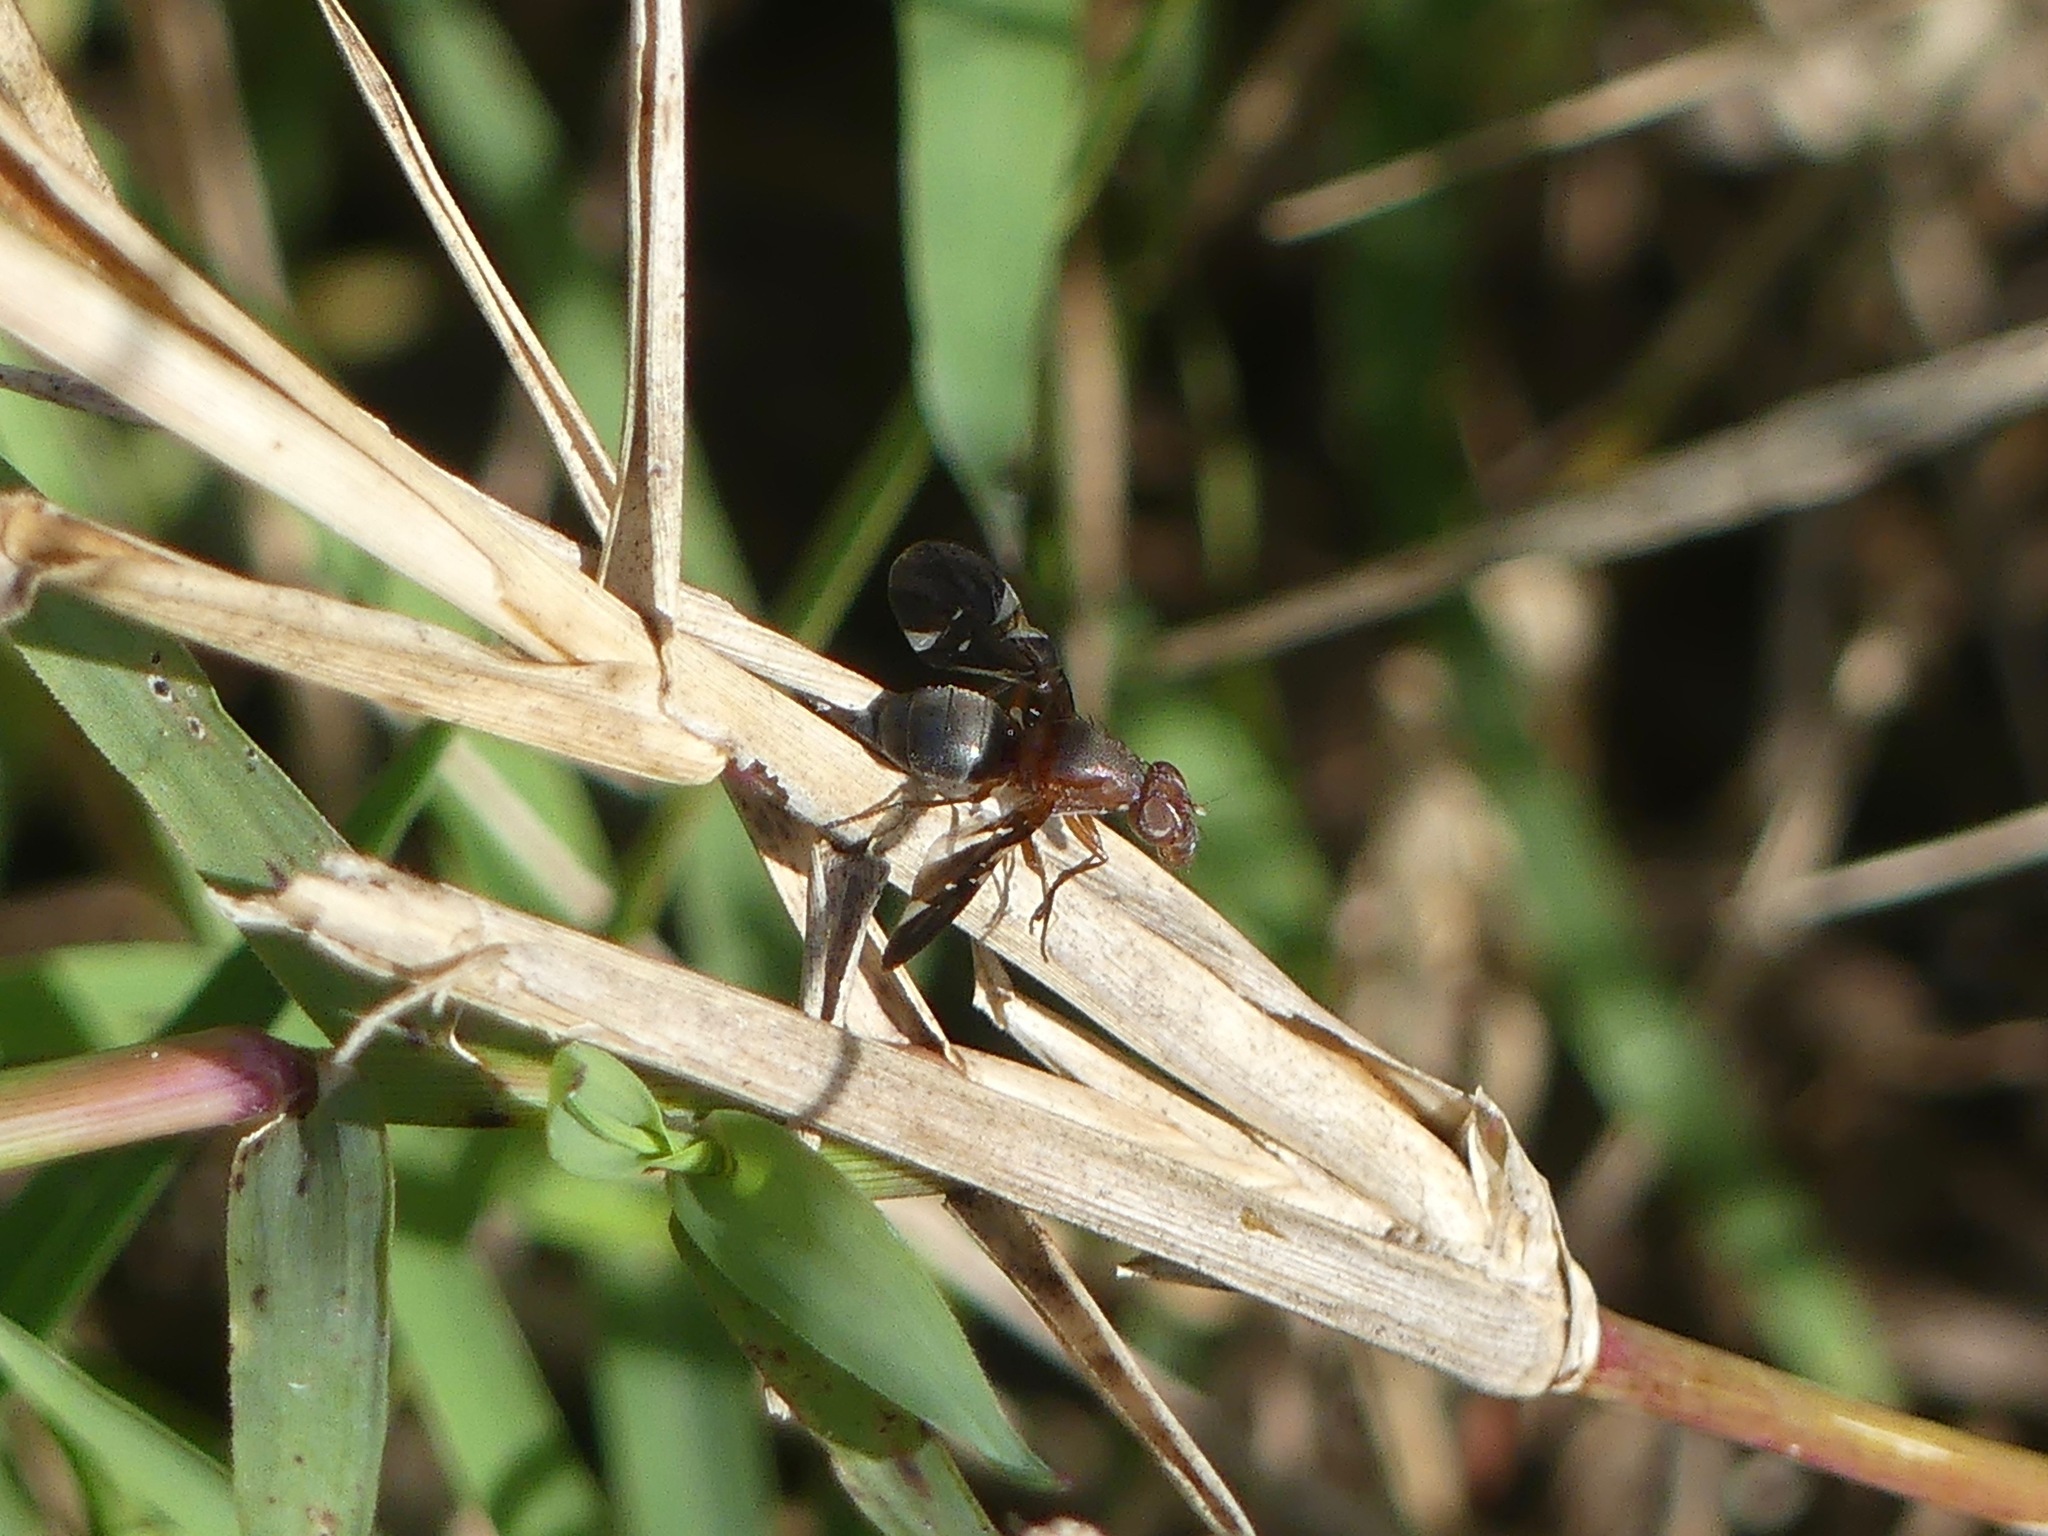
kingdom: Animalia
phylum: Arthropoda
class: Insecta
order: Diptera
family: Ulidiidae
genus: Delphinia
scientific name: Delphinia picta
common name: Common picture-winged fly
